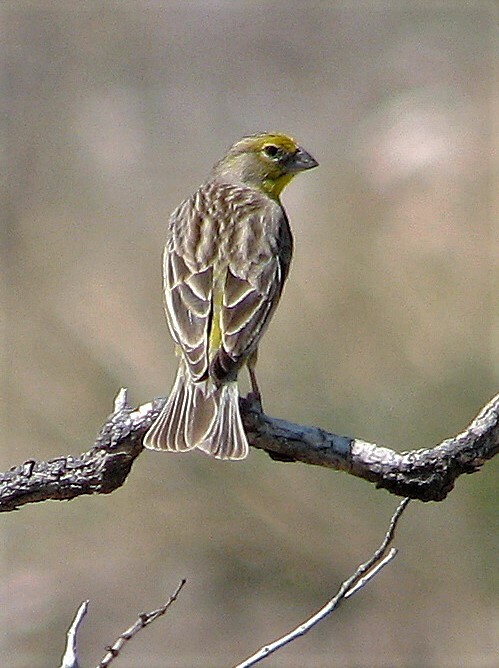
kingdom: Animalia
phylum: Chordata
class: Aves
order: Passeriformes
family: Thraupidae
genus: Sicalis
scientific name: Sicalis luteola
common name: Grassland yellow-finch
